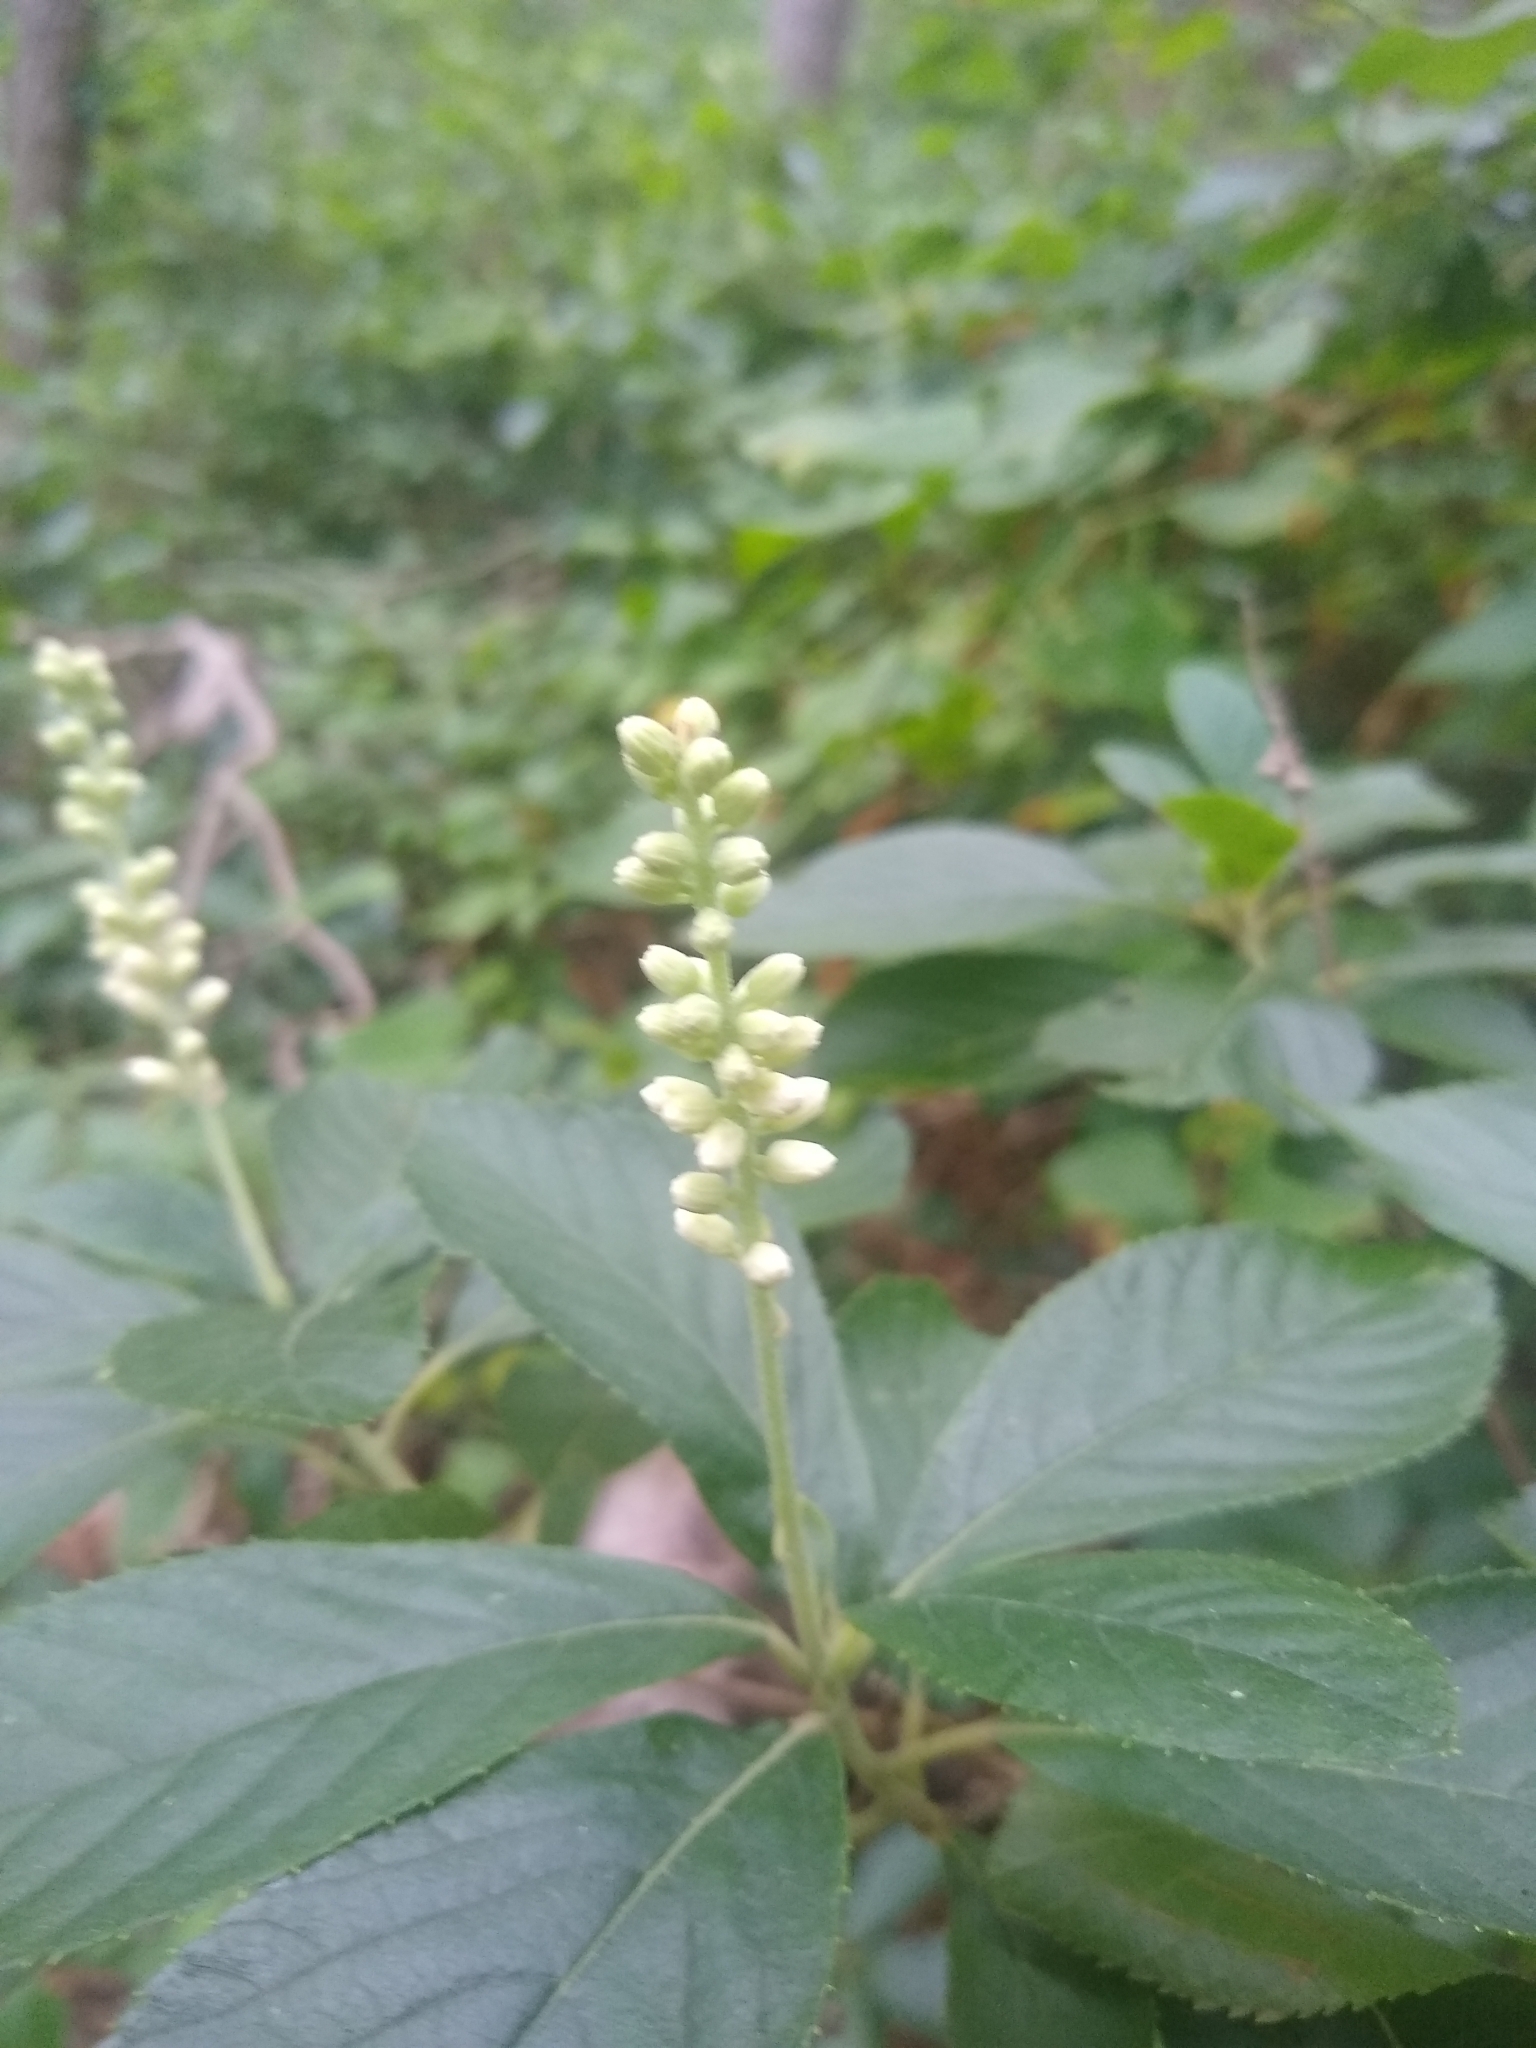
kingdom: Plantae
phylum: Tracheophyta
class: Magnoliopsida
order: Ericales
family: Clethraceae
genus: Clethra
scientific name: Clethra alnifolia
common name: Sweet pepperbush
